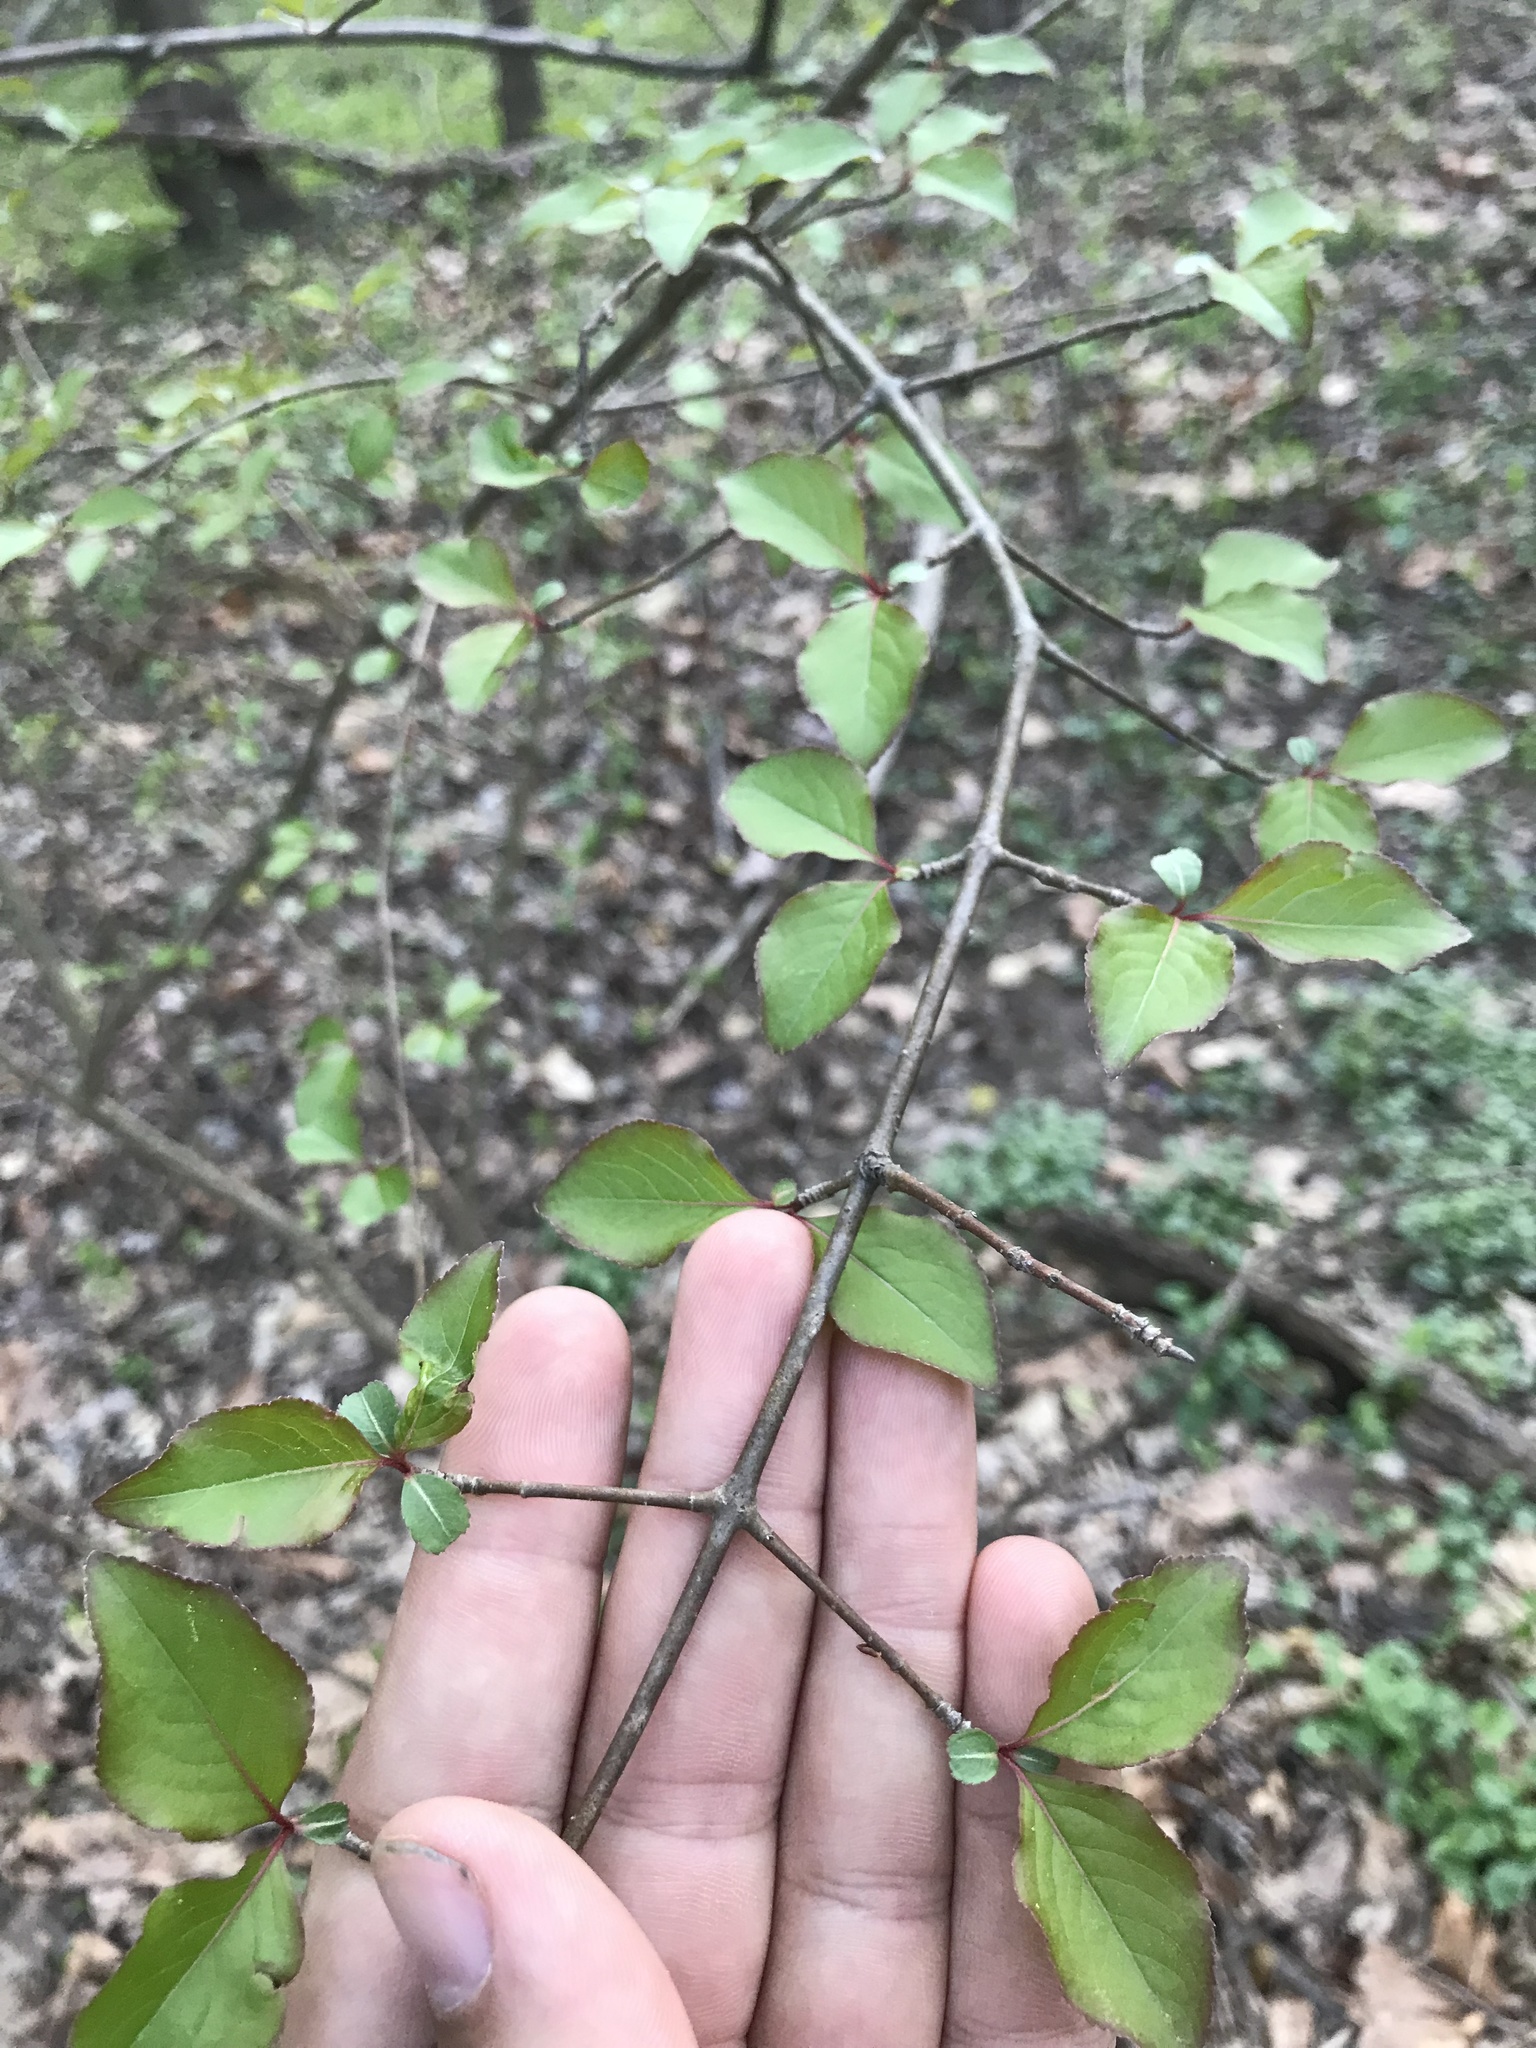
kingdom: Plantae
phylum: Tracheophyta
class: Magnoliopsida
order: Dipsacales
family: Viburnaceae
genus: Viburnum
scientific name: Viburnum prunifolium
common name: Black haw
